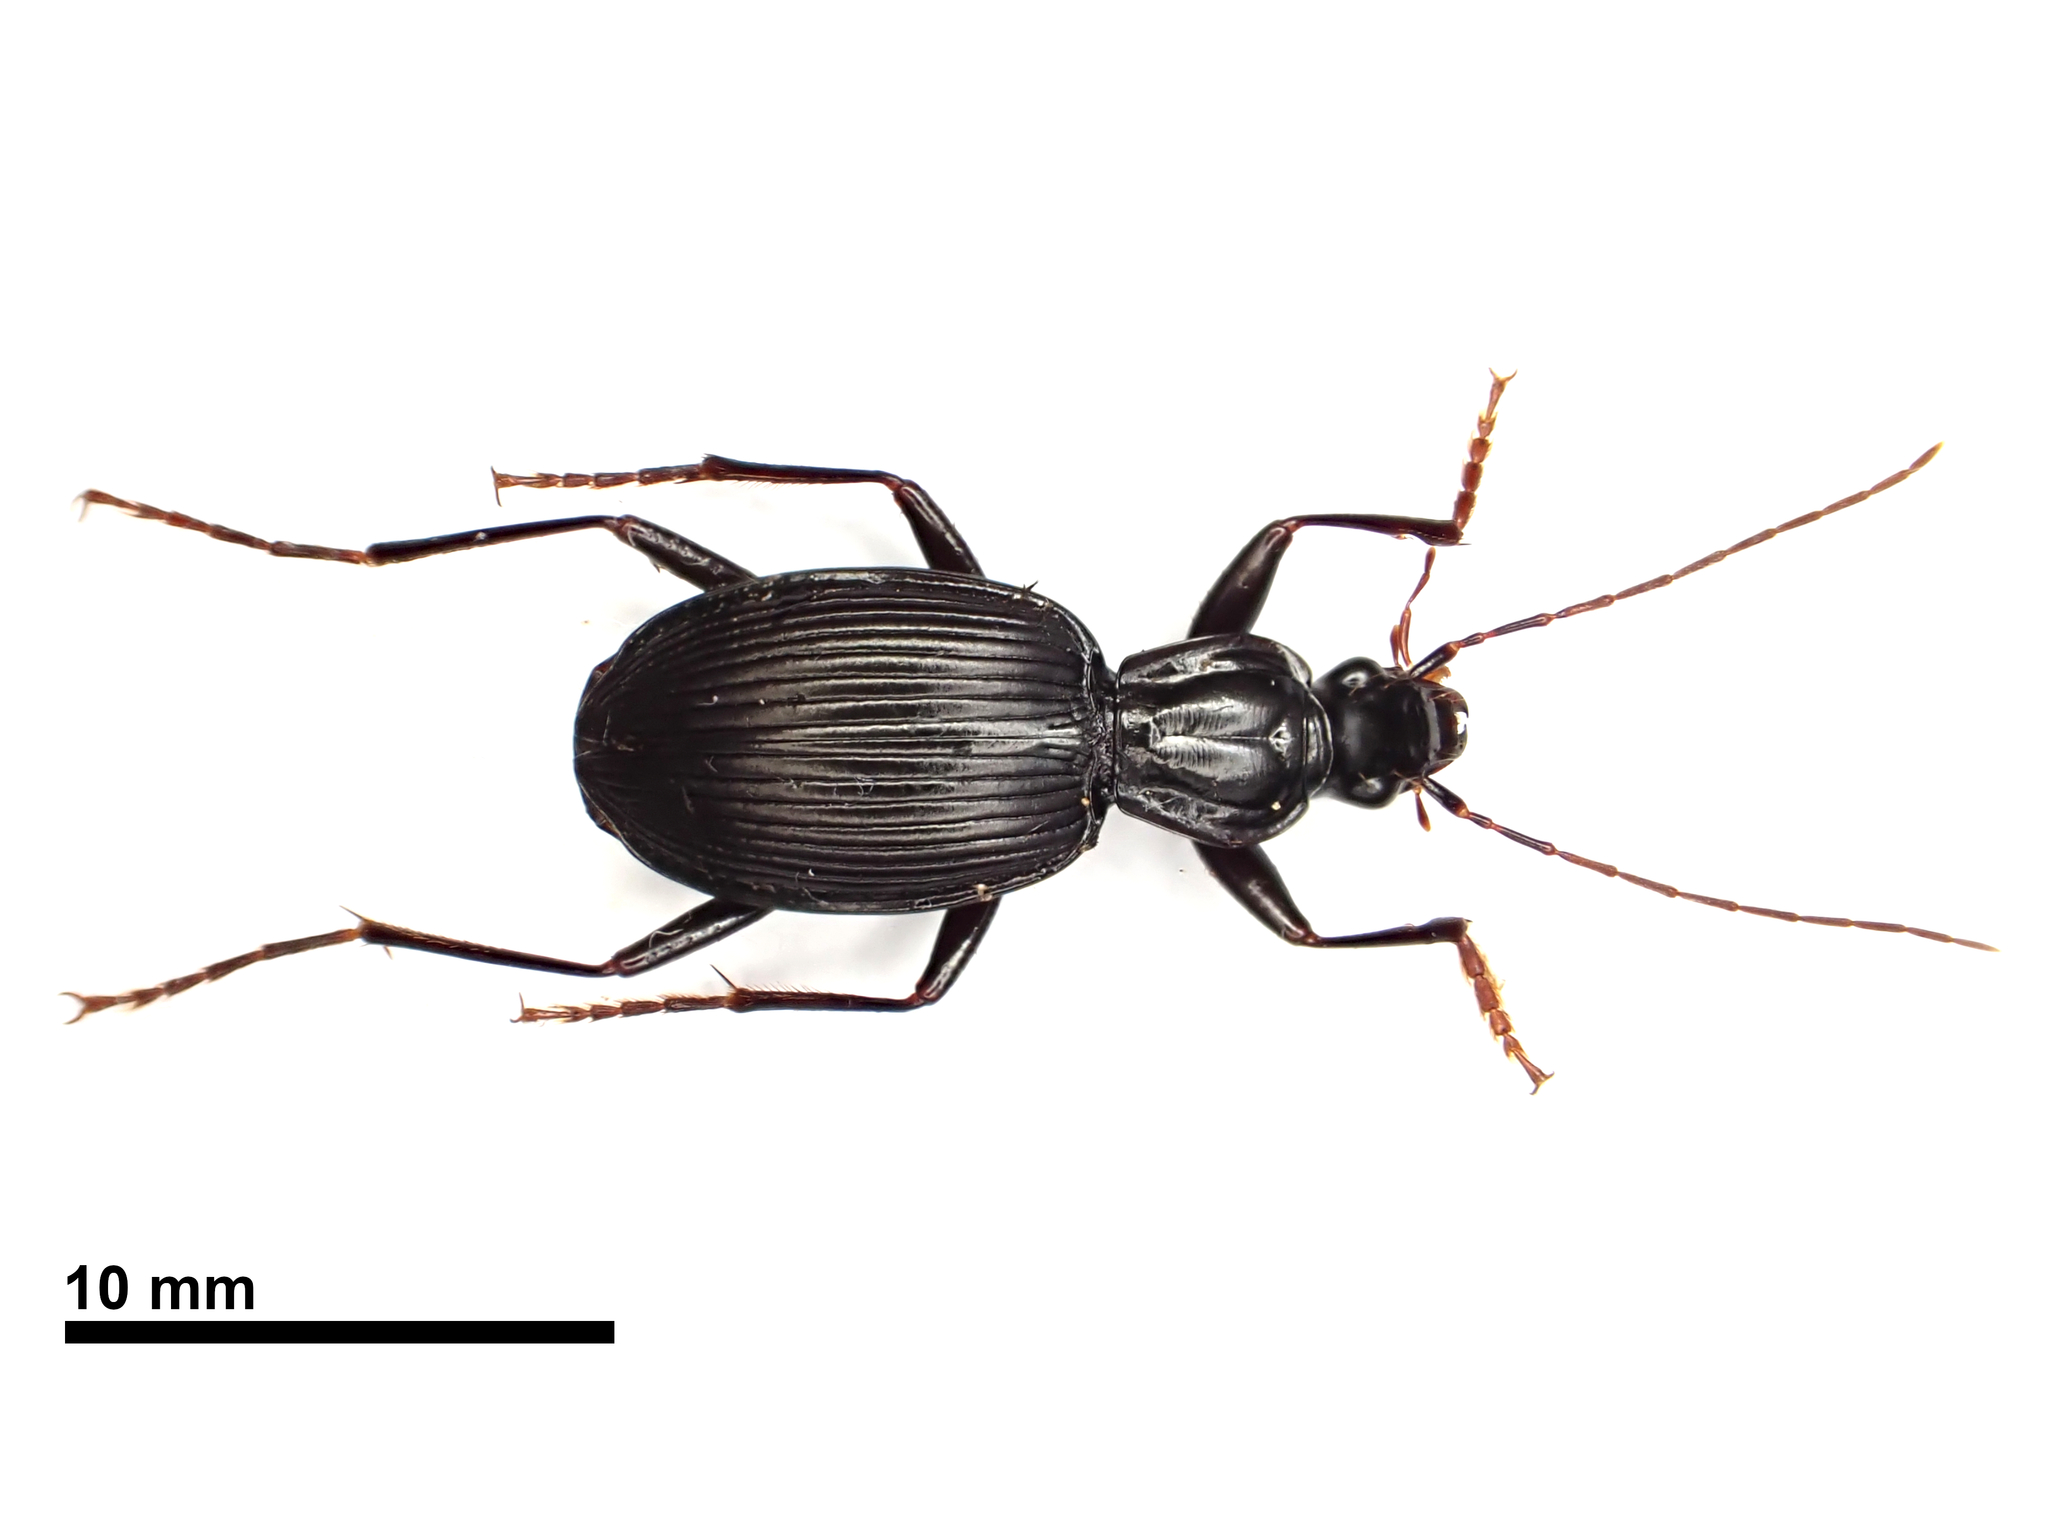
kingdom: Animalia
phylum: Arthropoda
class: Insecta
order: Coleoptera
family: Carabidae
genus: Ctenognathus
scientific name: Ctenognathus novaezelandiae
